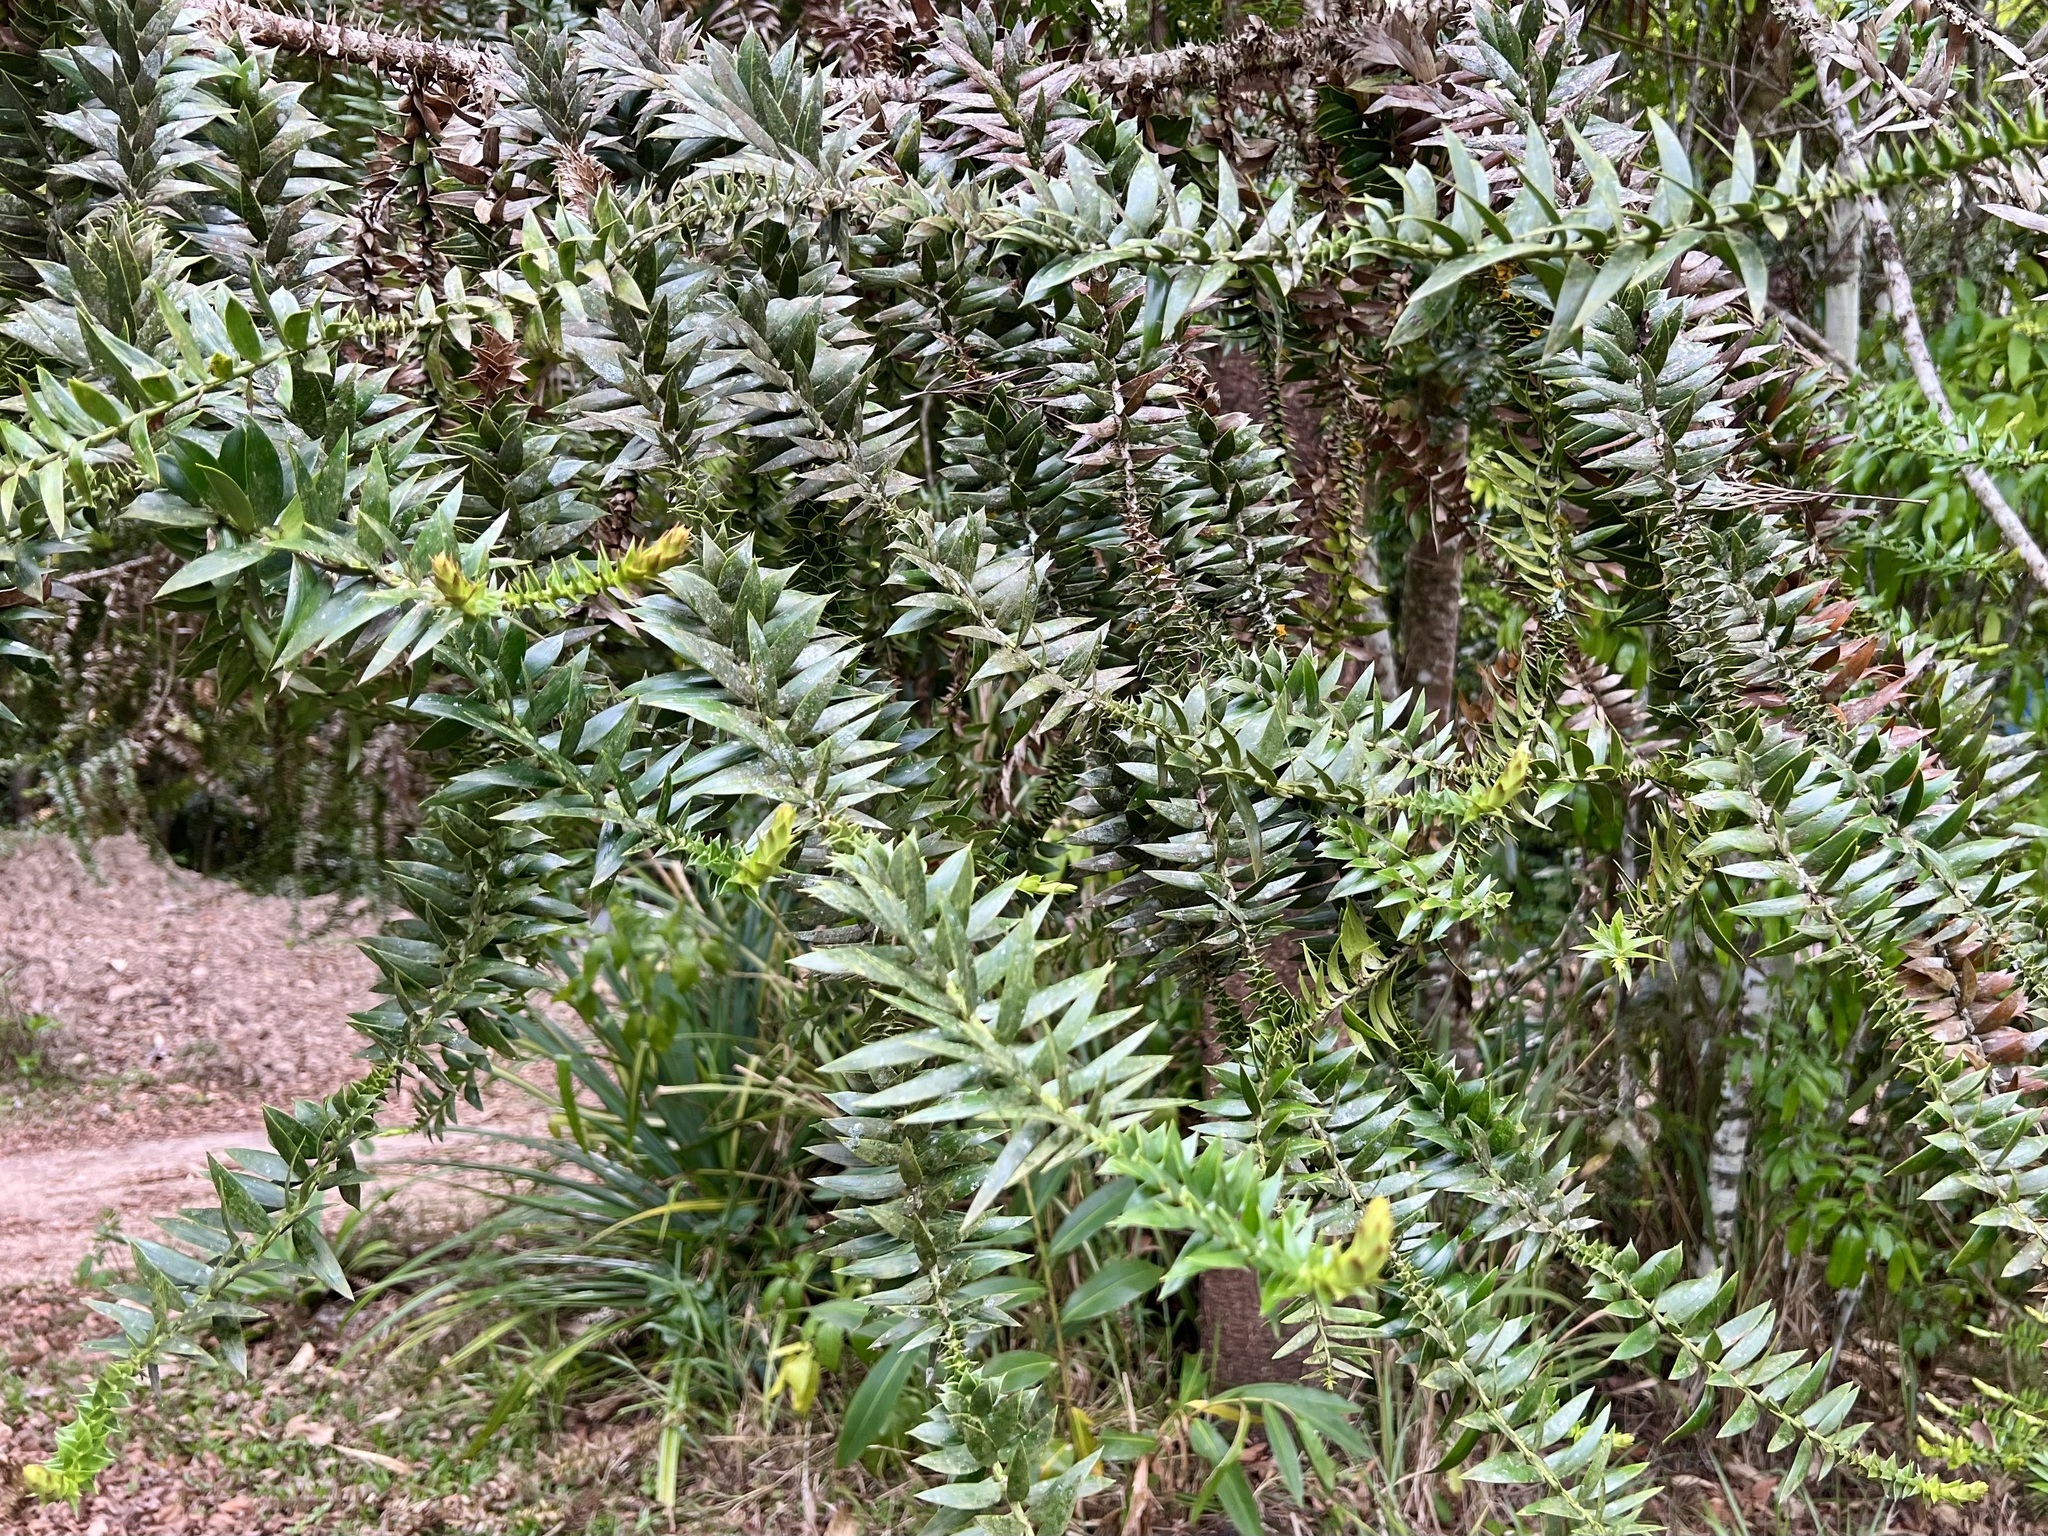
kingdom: Plantae
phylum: Tracheophyta
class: Pinopsida
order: Pinales
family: Araucariaceae
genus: Araucaria
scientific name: Araucaria bidwillii
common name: Moreton-bay-pine
